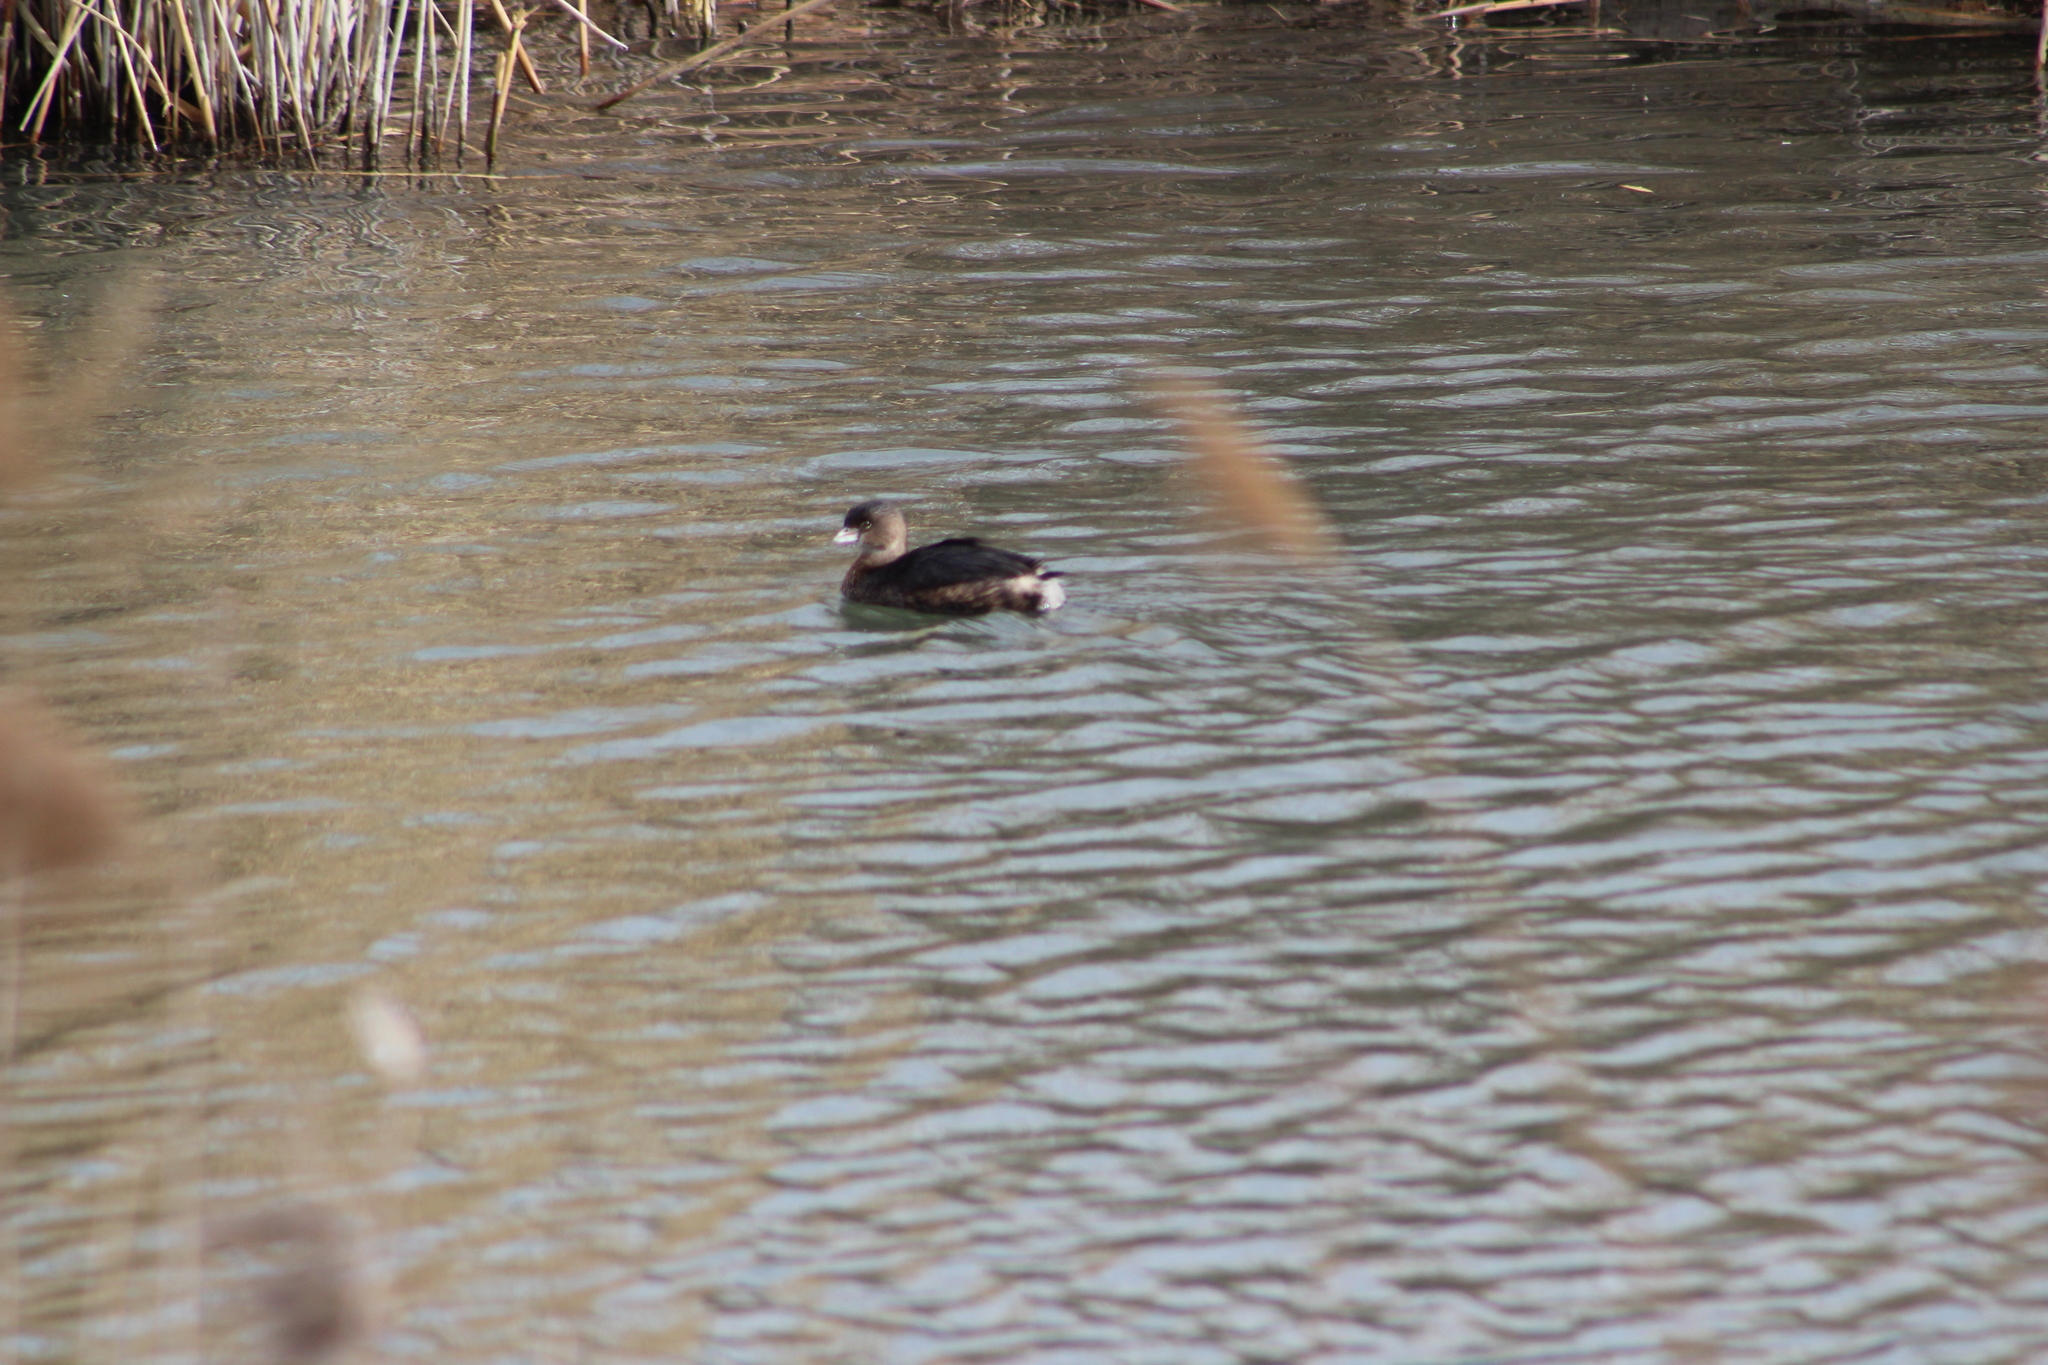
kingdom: Animalia
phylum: Chordata
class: Aves
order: Podicipediformes
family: Podicipedidae
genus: Podilymbus
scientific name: Podilymbus podiceps
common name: Pied-billed grebe
